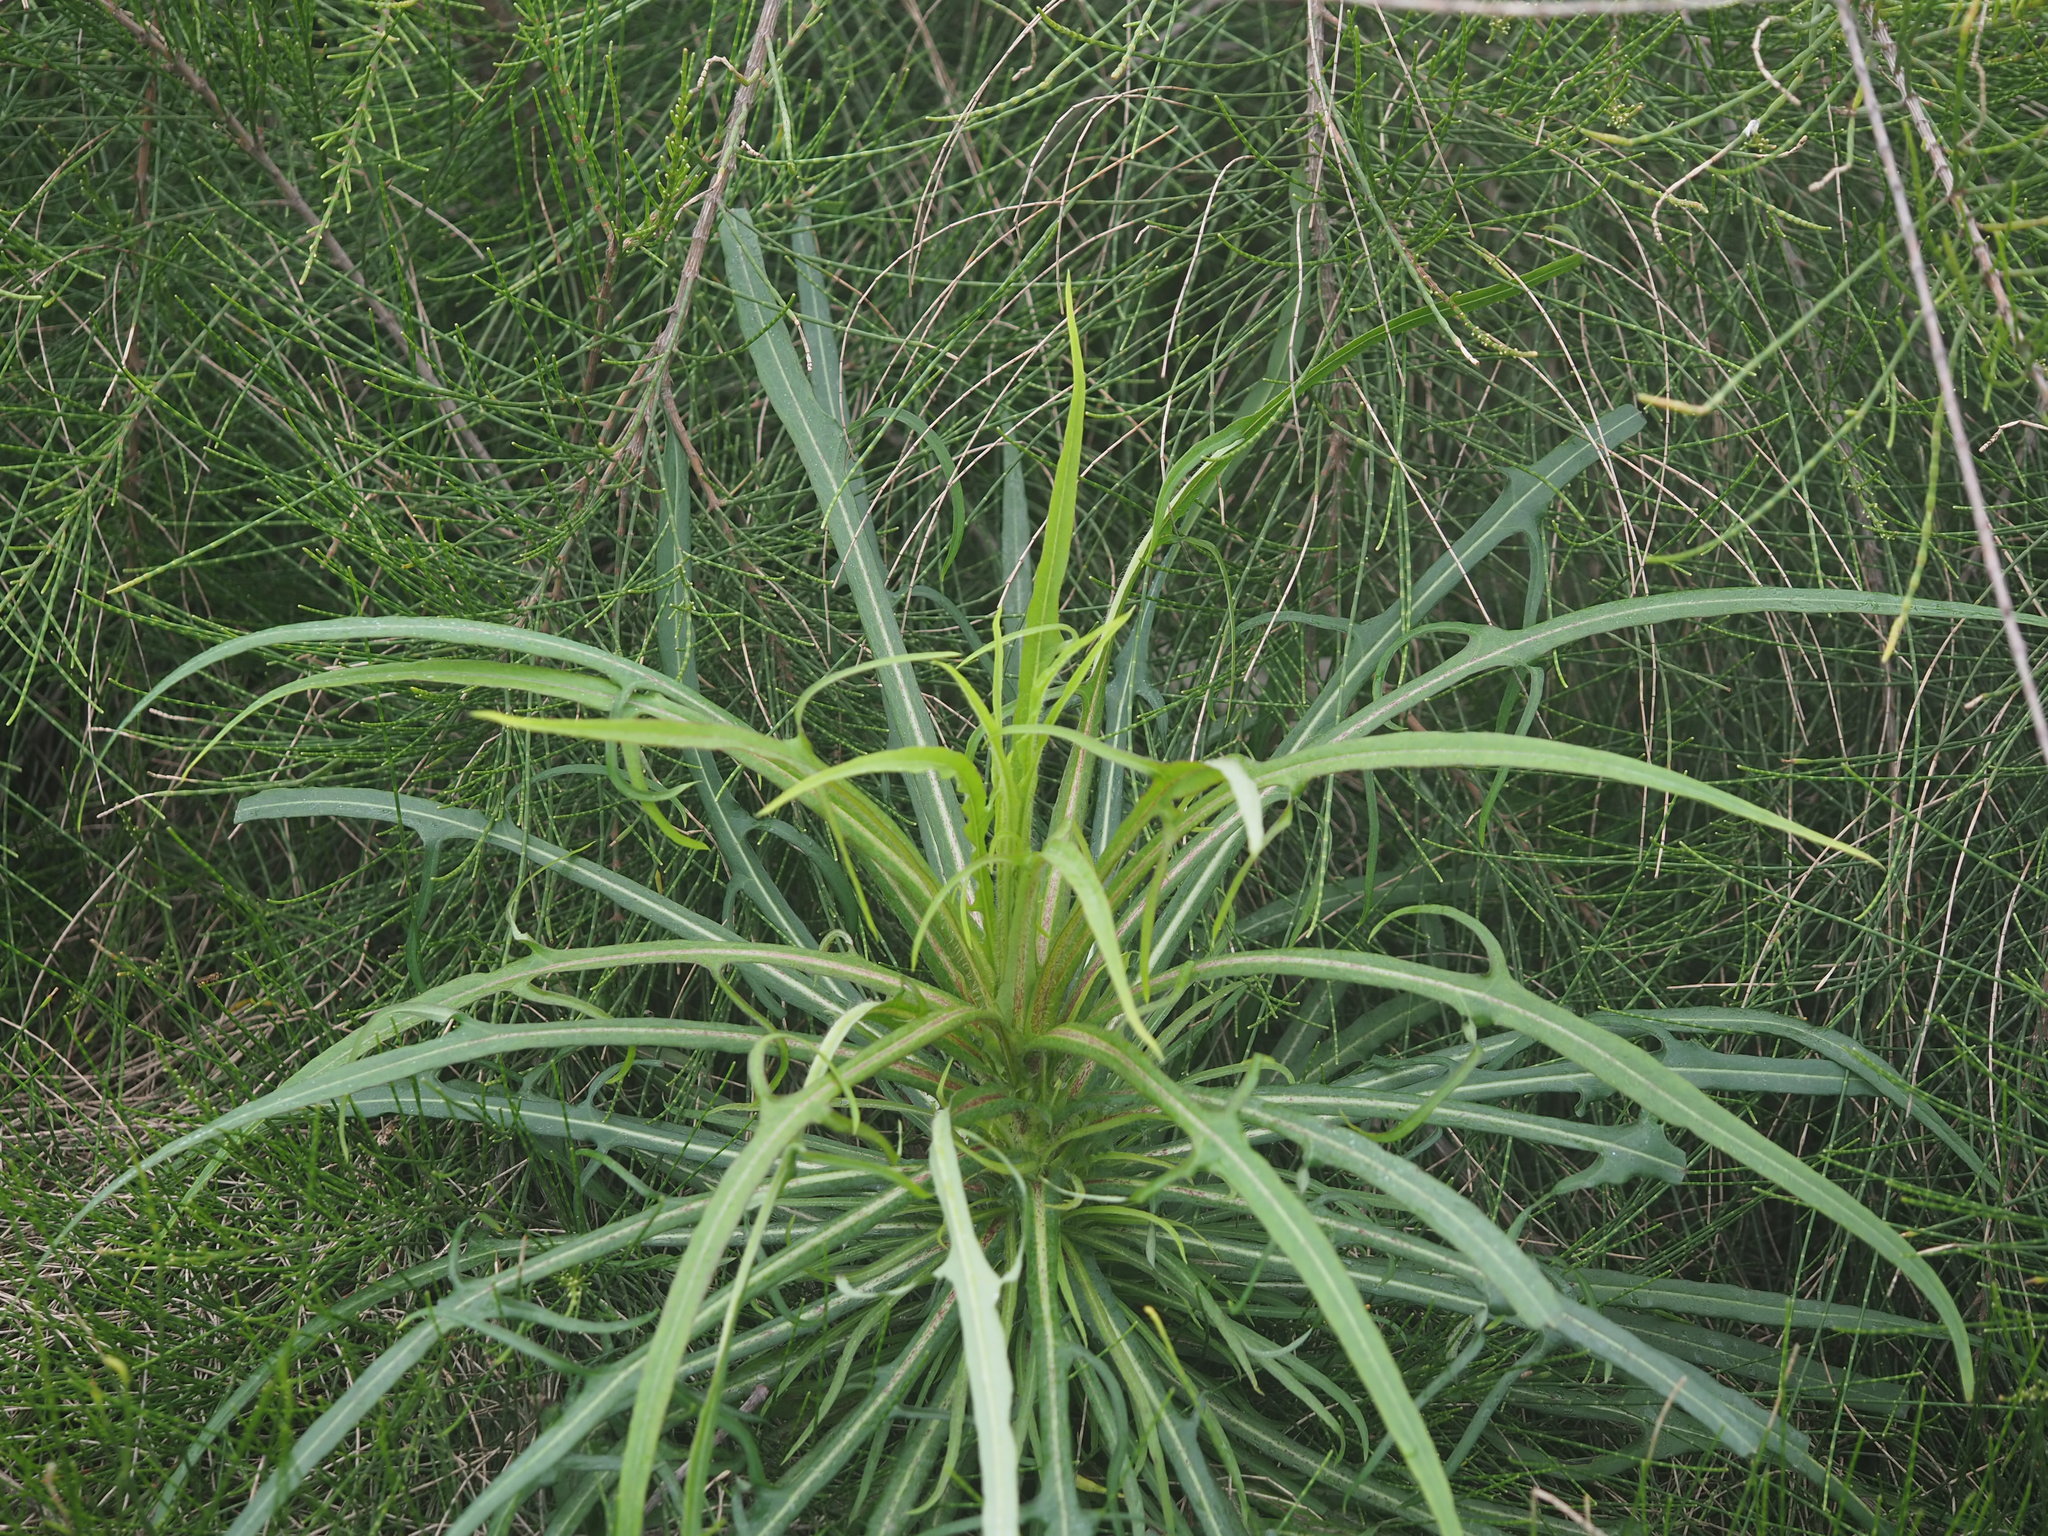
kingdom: Plantae
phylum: Tracheophyta
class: Magnoliopsida
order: Asterales
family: Asteraceae
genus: Lactuca
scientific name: Lactuca indica
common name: Wild lettuce
